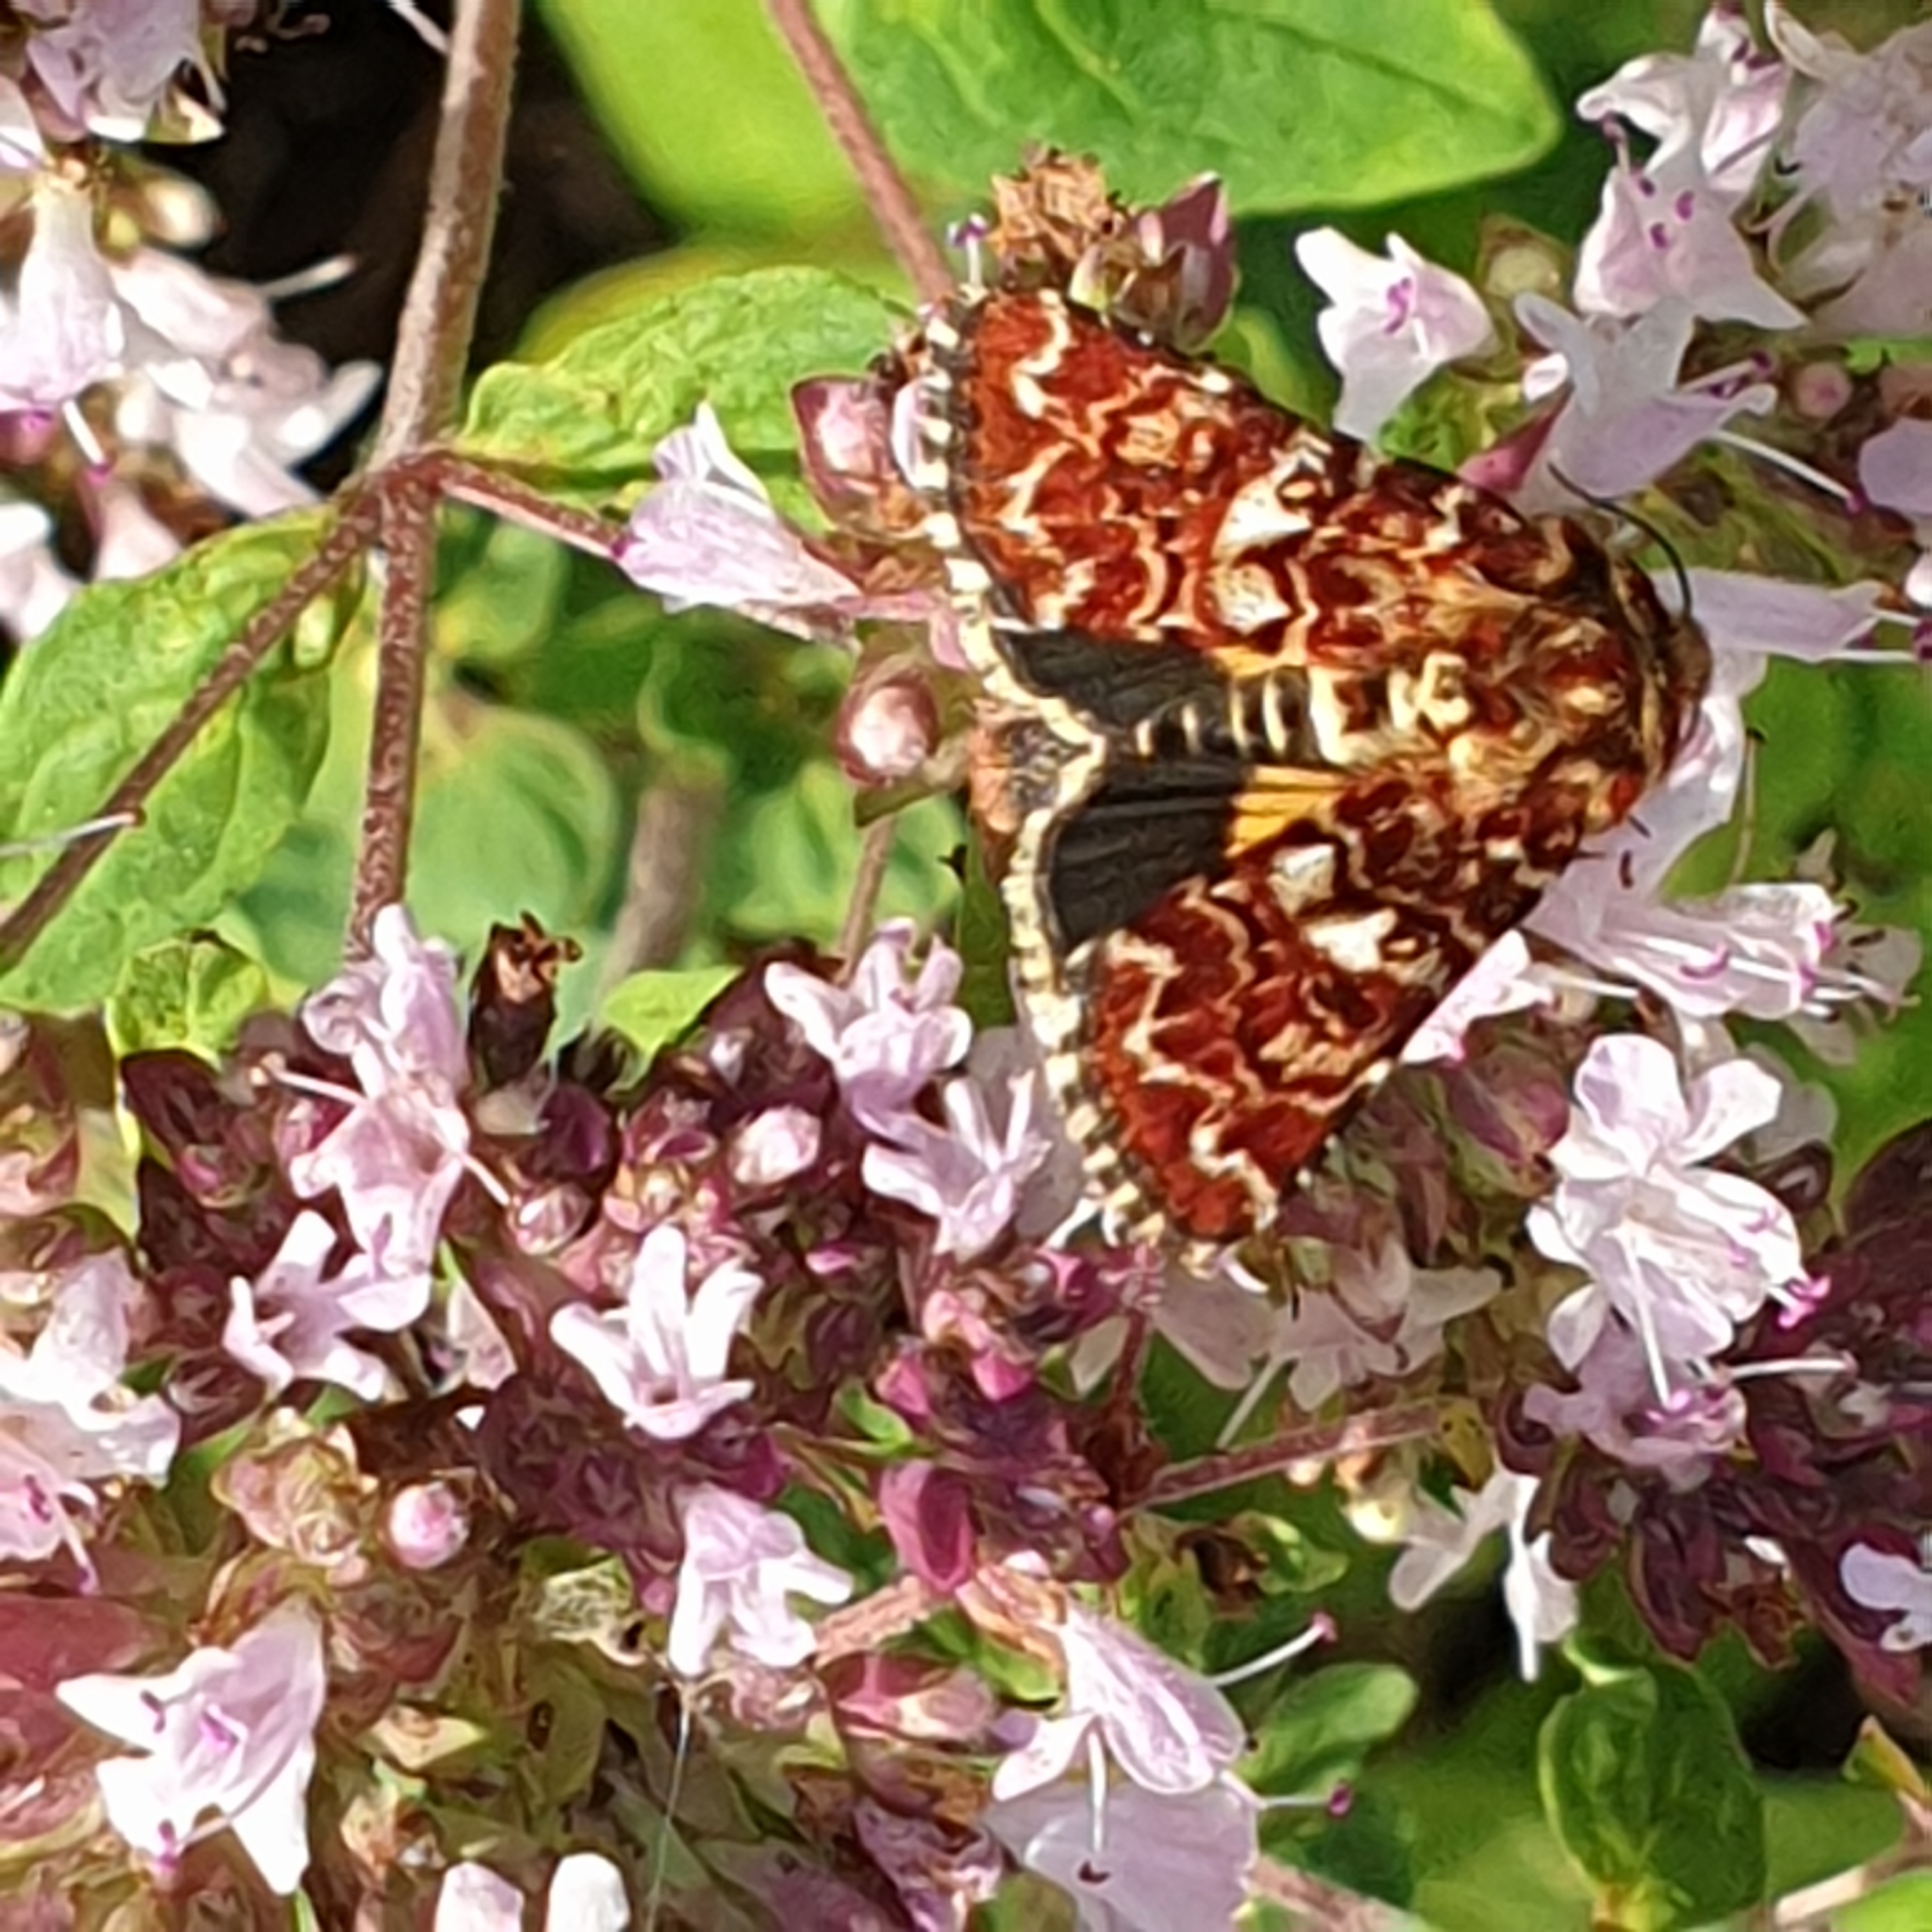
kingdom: Animalia
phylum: Arthropoda
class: Insecta
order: Lepidoptera
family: Noctuidae
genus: Anarta
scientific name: Anarta myrtilli
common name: Beautiful yellow underwing
